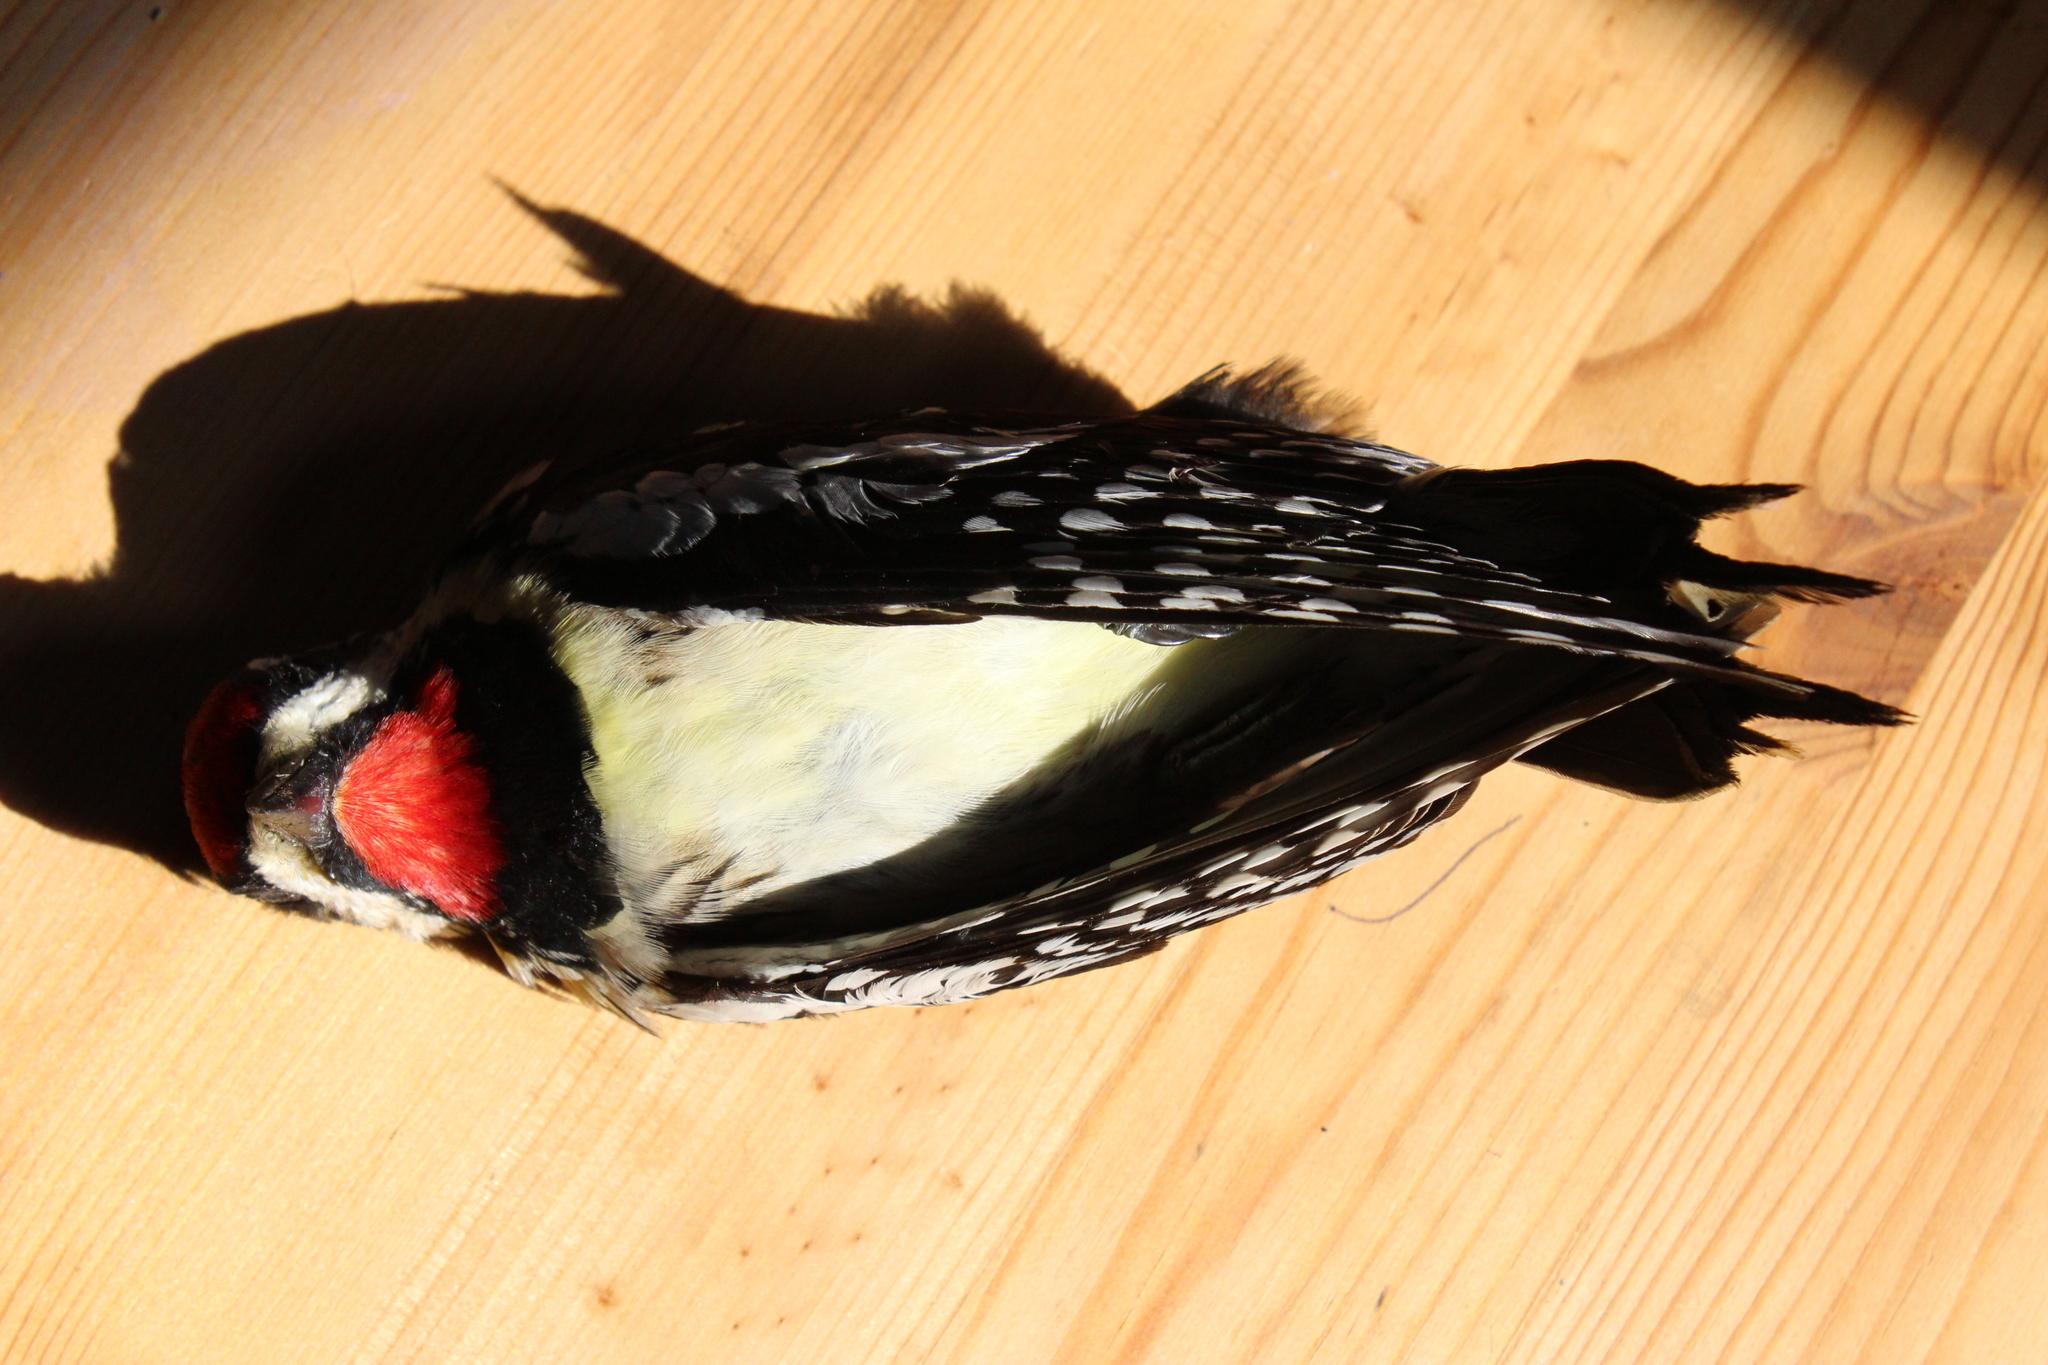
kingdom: Animalia
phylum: Chordata
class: Aves
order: Piciformes
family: Picidae
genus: Sphyrapicus
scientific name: Sphyrapicus varius
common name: Yellow-bellied sapsucker
